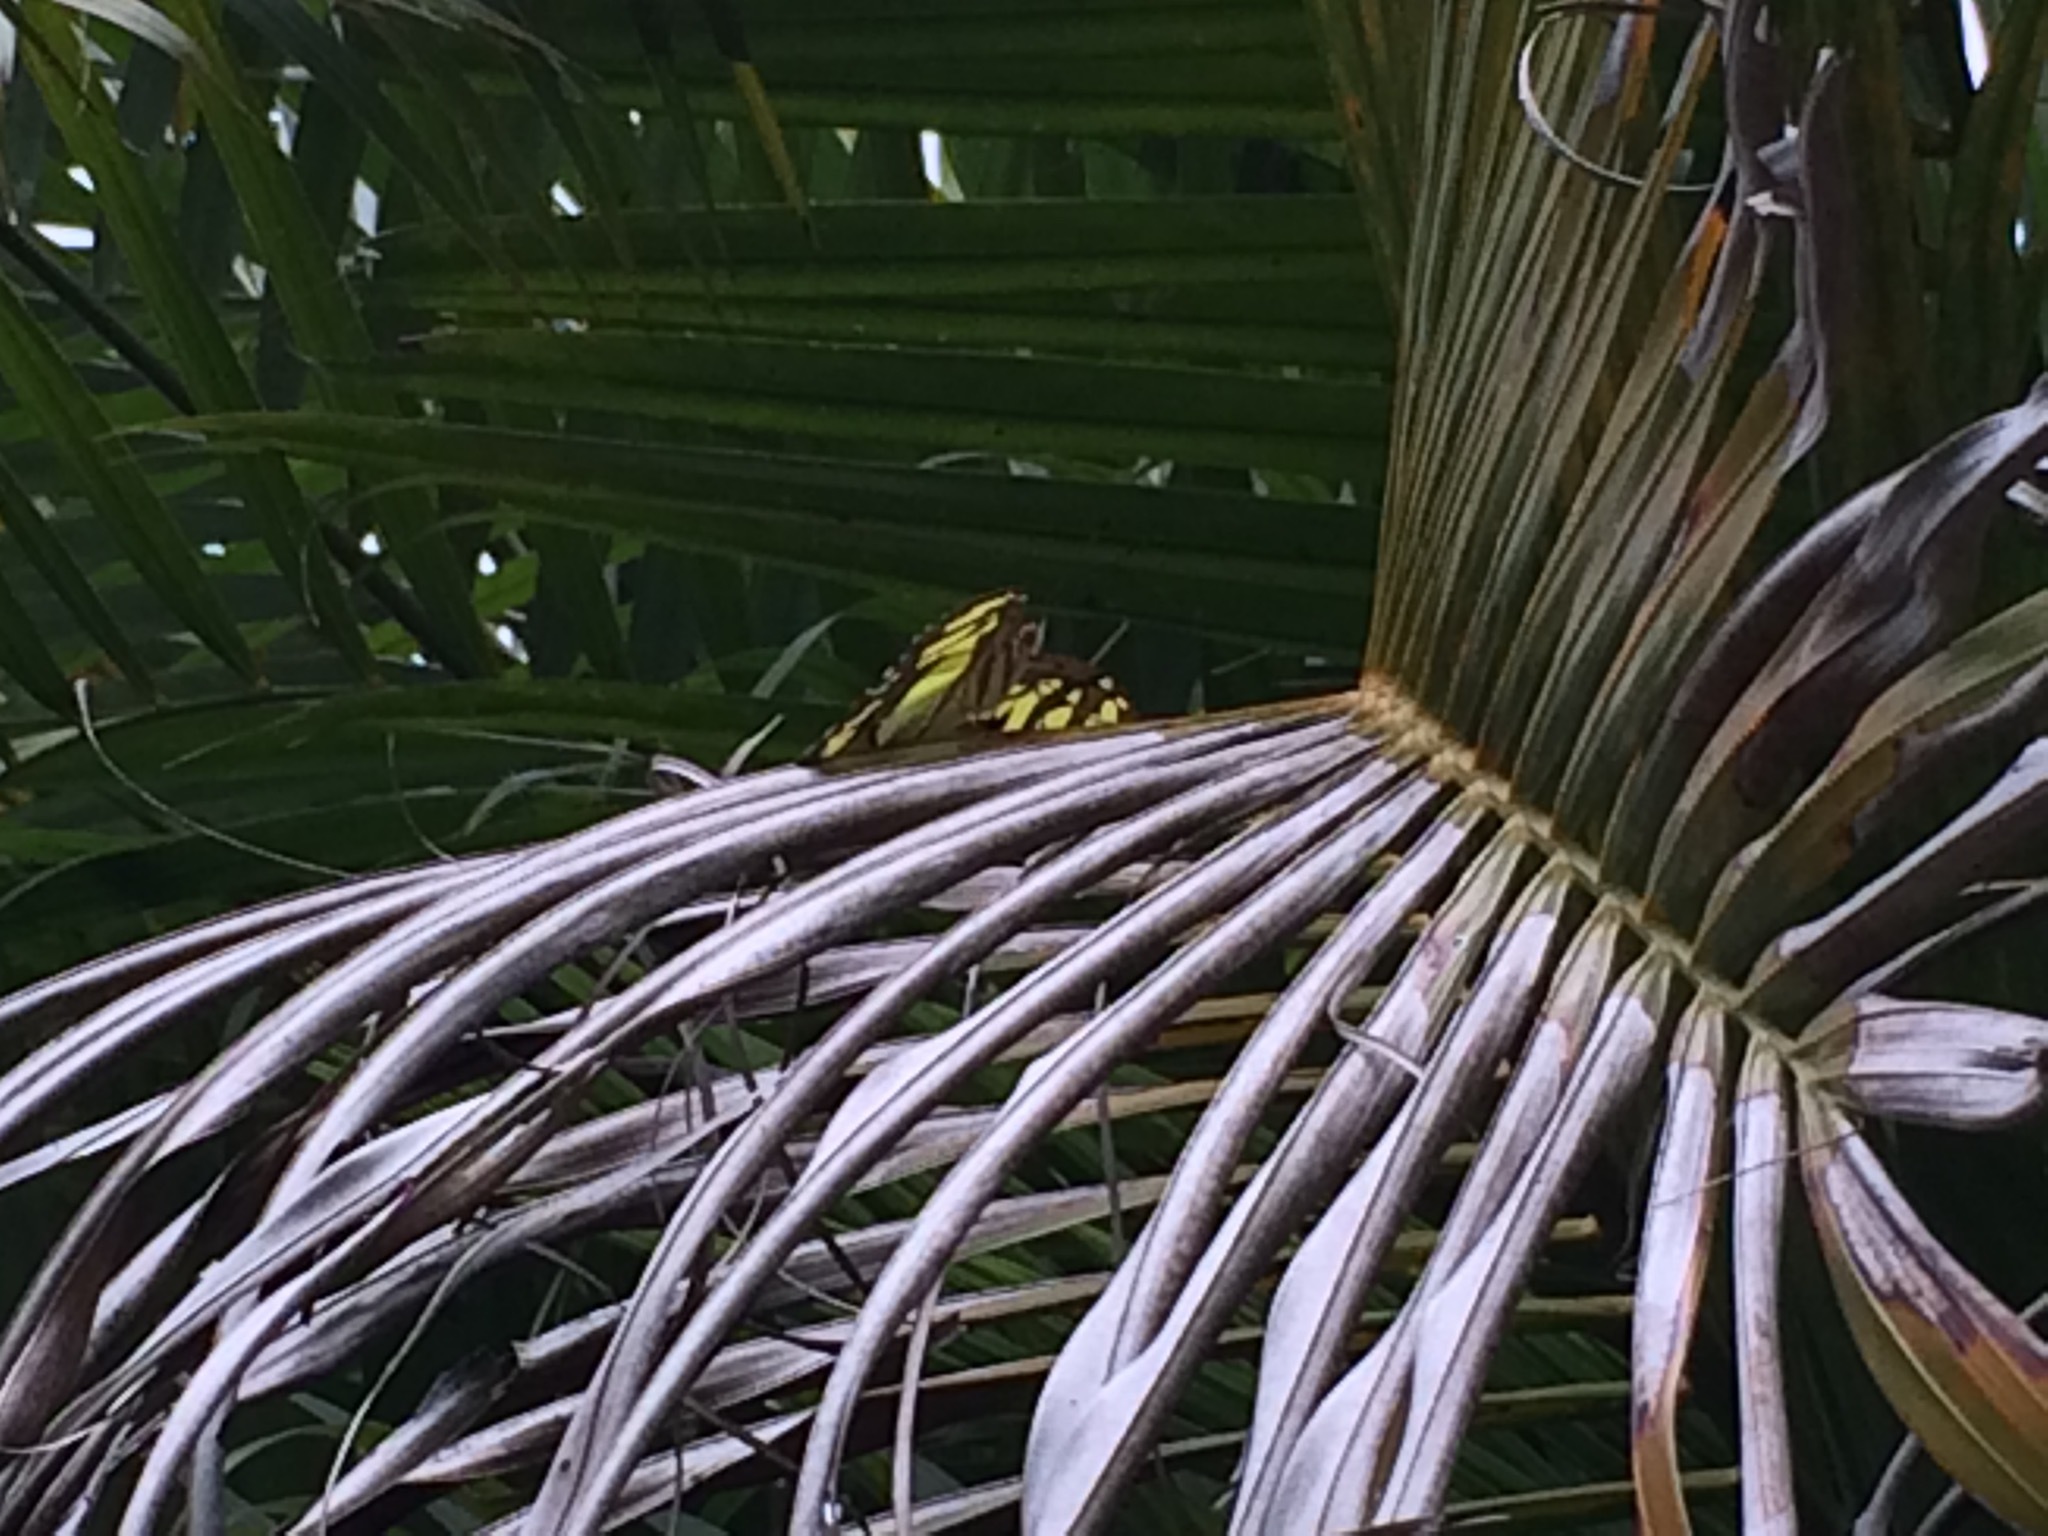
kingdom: Animalia
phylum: Arthropoda
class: Insecta
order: Lepidoptera
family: Nymphalidae
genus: Siproeta
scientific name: Siproeta stelenes
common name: Malachite
